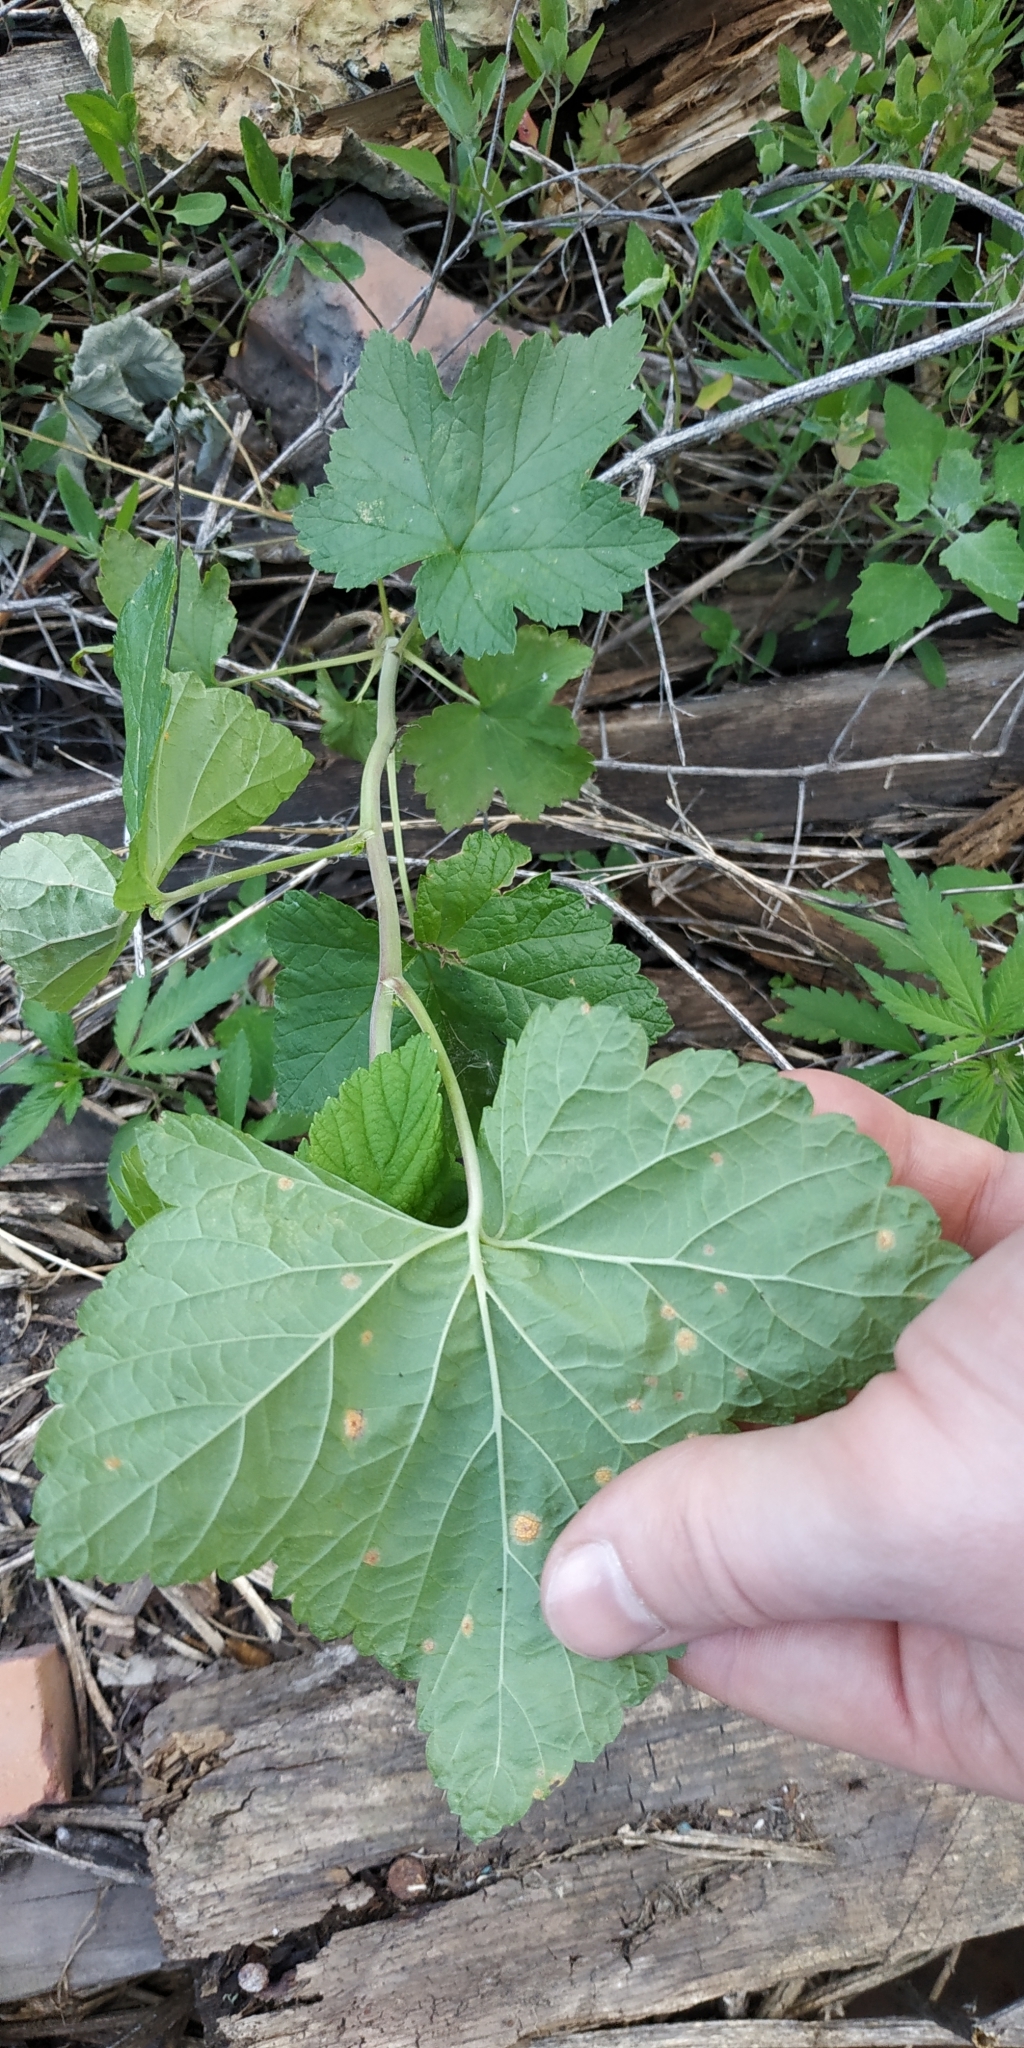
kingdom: Plantae
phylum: Tracheophyta
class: Magnoliopsida
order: Saxifragales
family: Grossulariaceae
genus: Ribes
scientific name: Ribes nigrum
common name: Black currant
